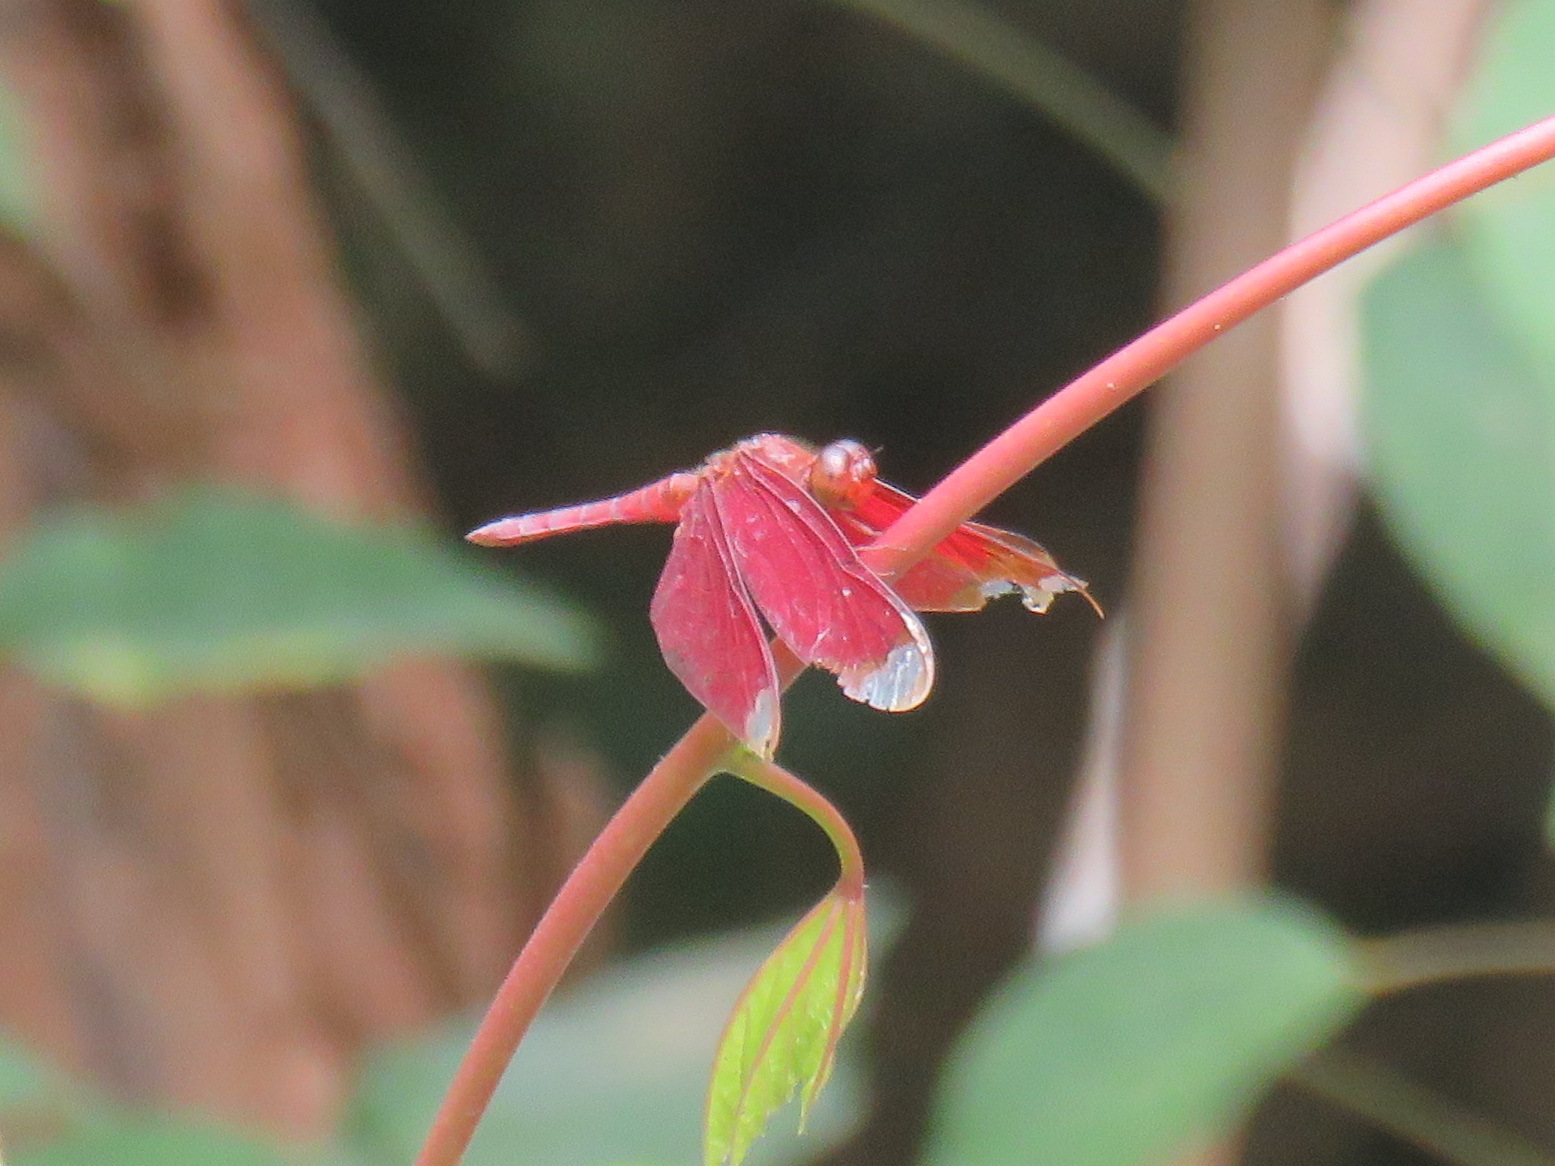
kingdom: Animalia
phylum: Arthropoda
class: Insecta
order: Odonata
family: Libellulidae
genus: Neurothemis
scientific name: Neurothemis fulvia
